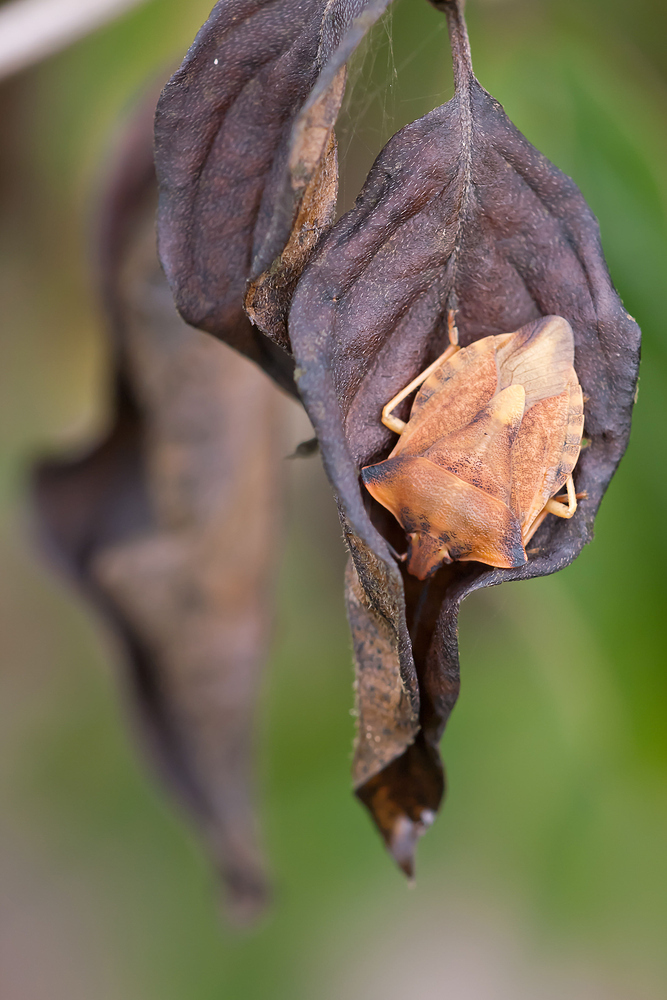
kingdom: Animalia
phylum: Arthropoda
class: Insecta
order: Hemiptera
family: Pentatomidae
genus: Carpocoris
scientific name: Carpocoris fuscispinus
